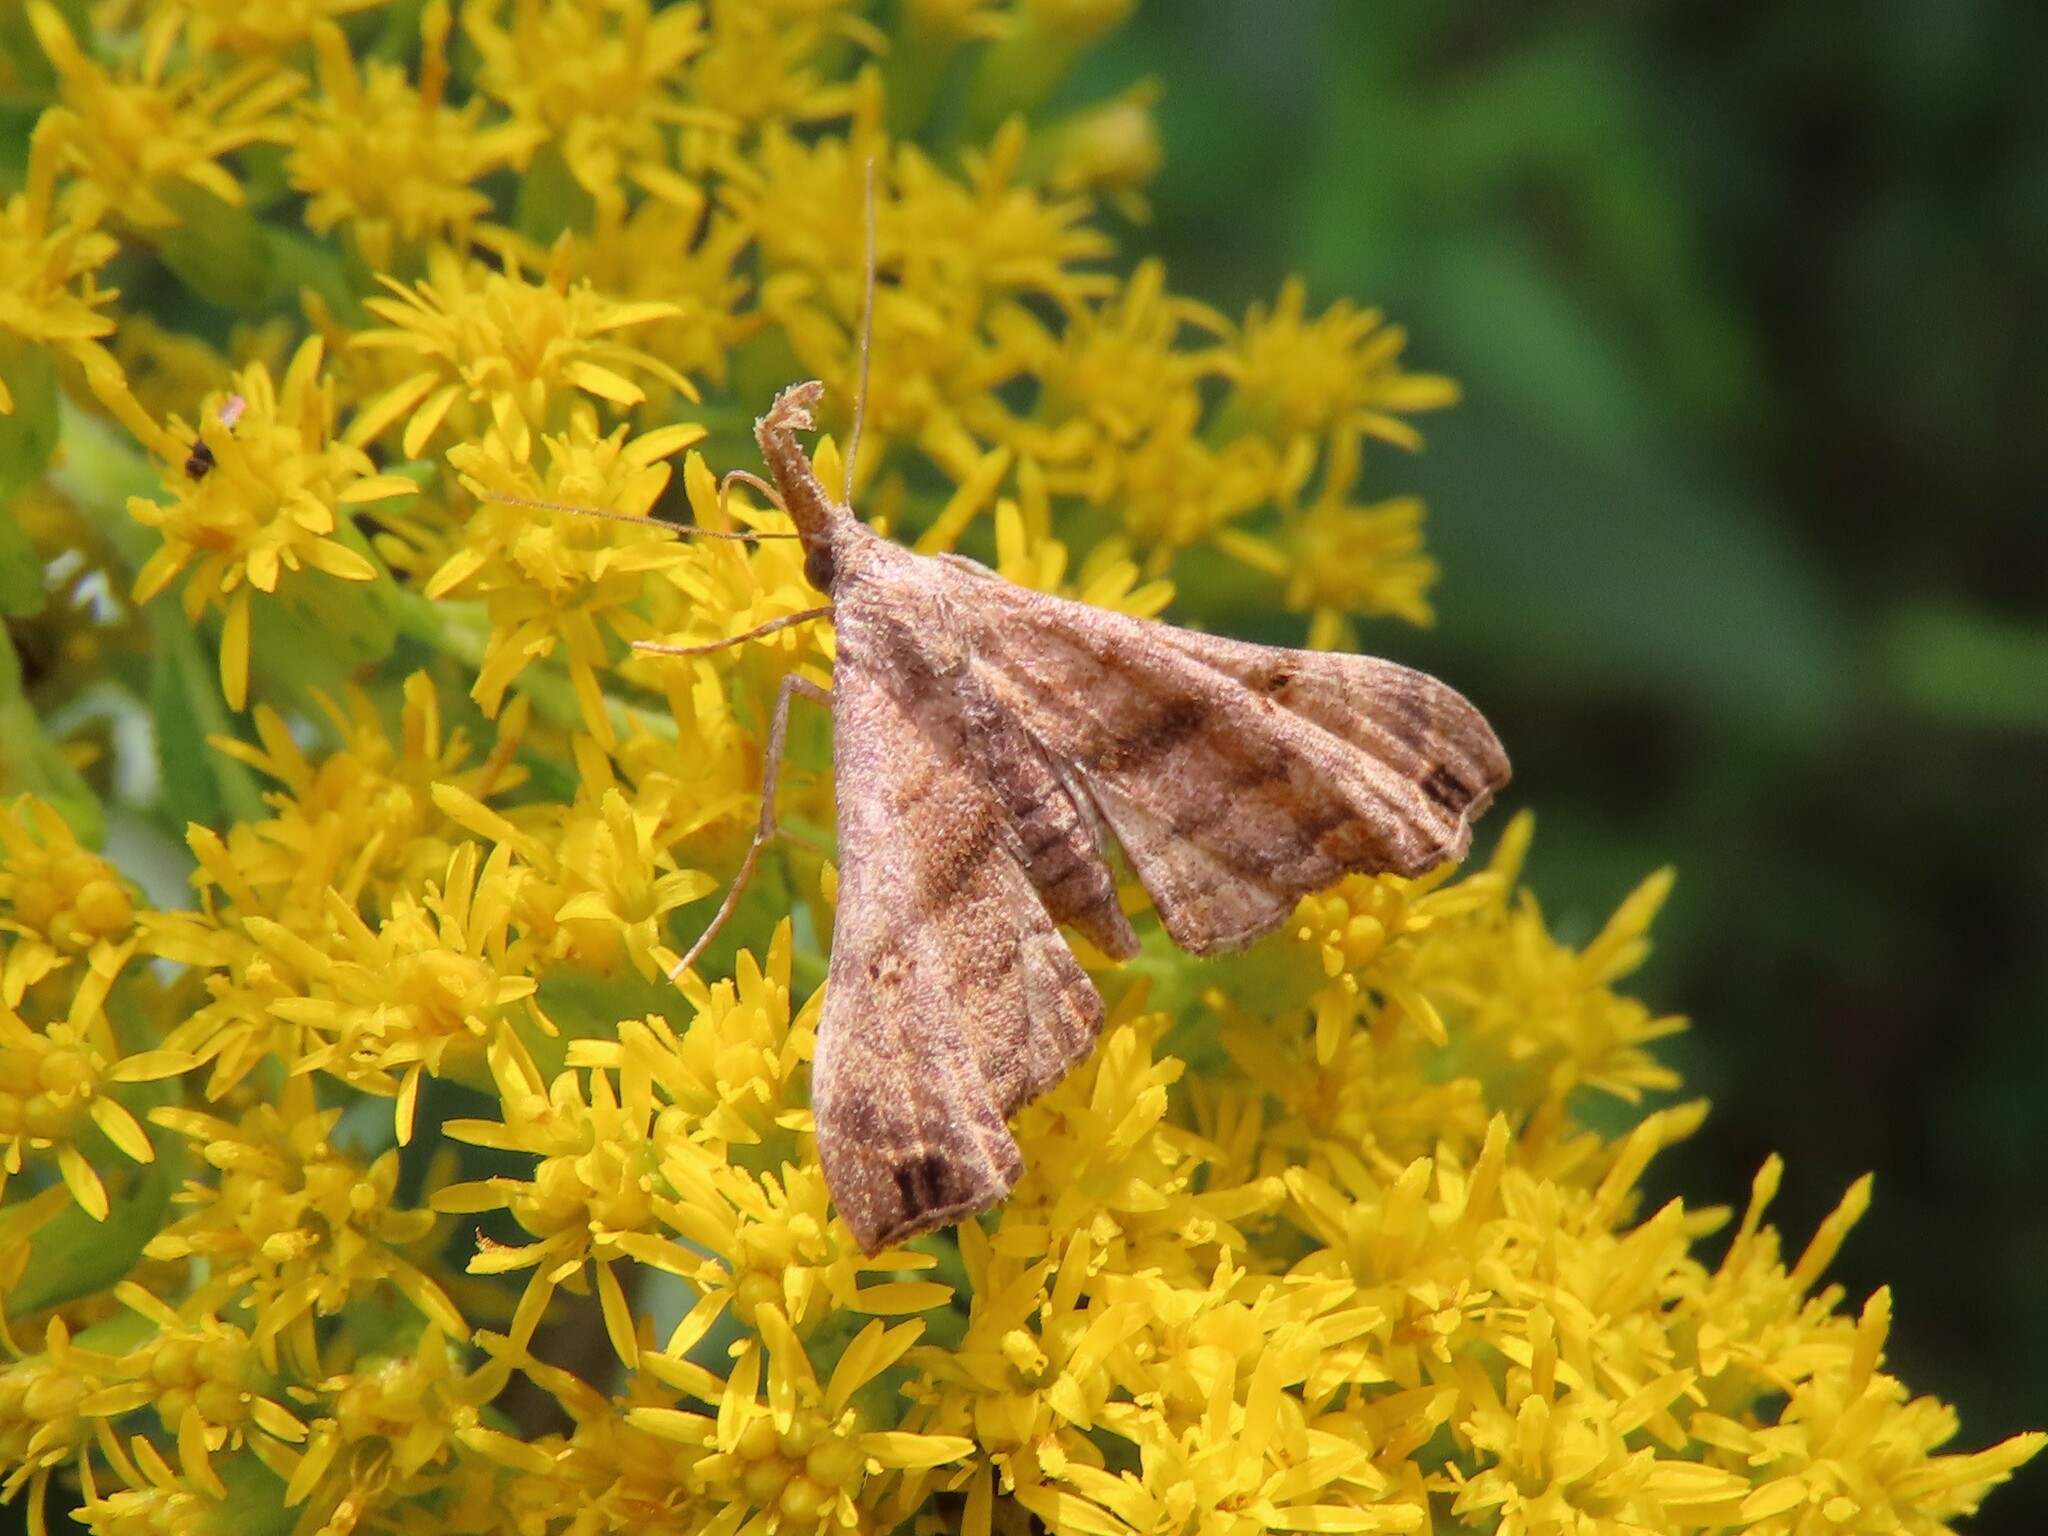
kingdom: Animalia
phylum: Arthropoda
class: Insecta
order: Lepidoptera
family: Erebidae
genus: Palthis
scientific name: Palthis asopialis
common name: Faint-spotted palthis moth
